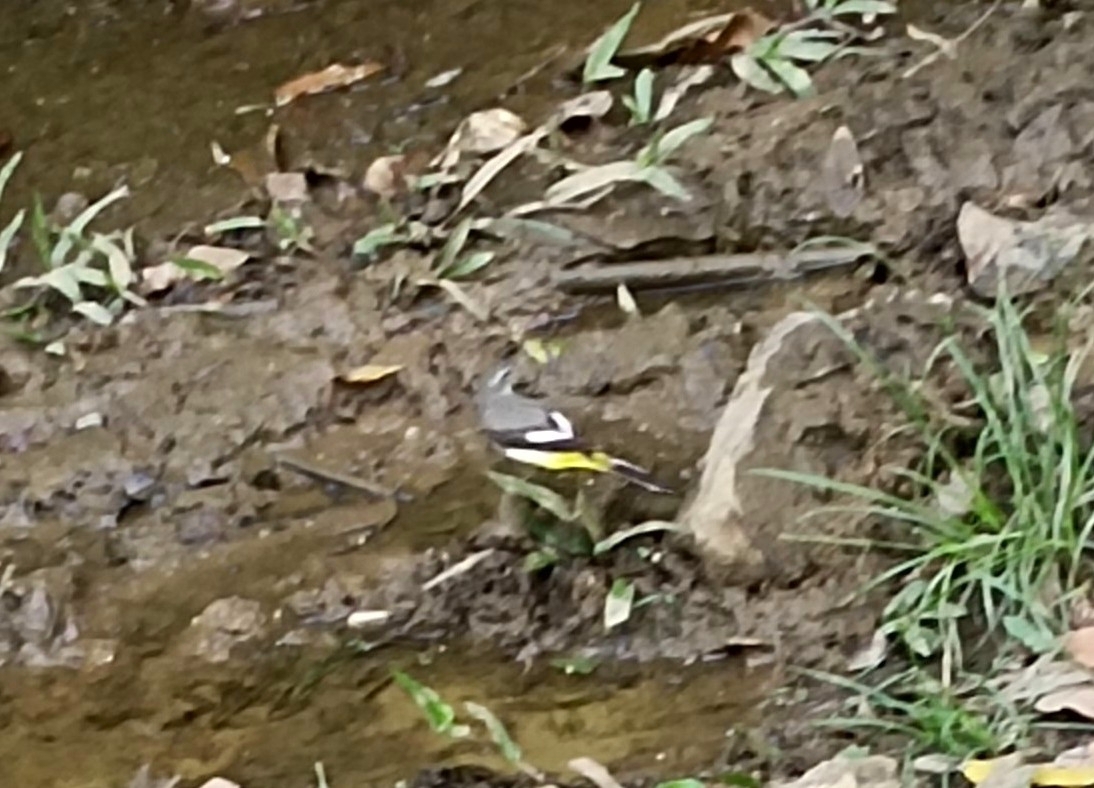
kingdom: Animalia
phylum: Chordata
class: Aves
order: Passeriformes
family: Motacillidae
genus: Motacilla
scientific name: Motacilla cinerea
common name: Grey wagtail
